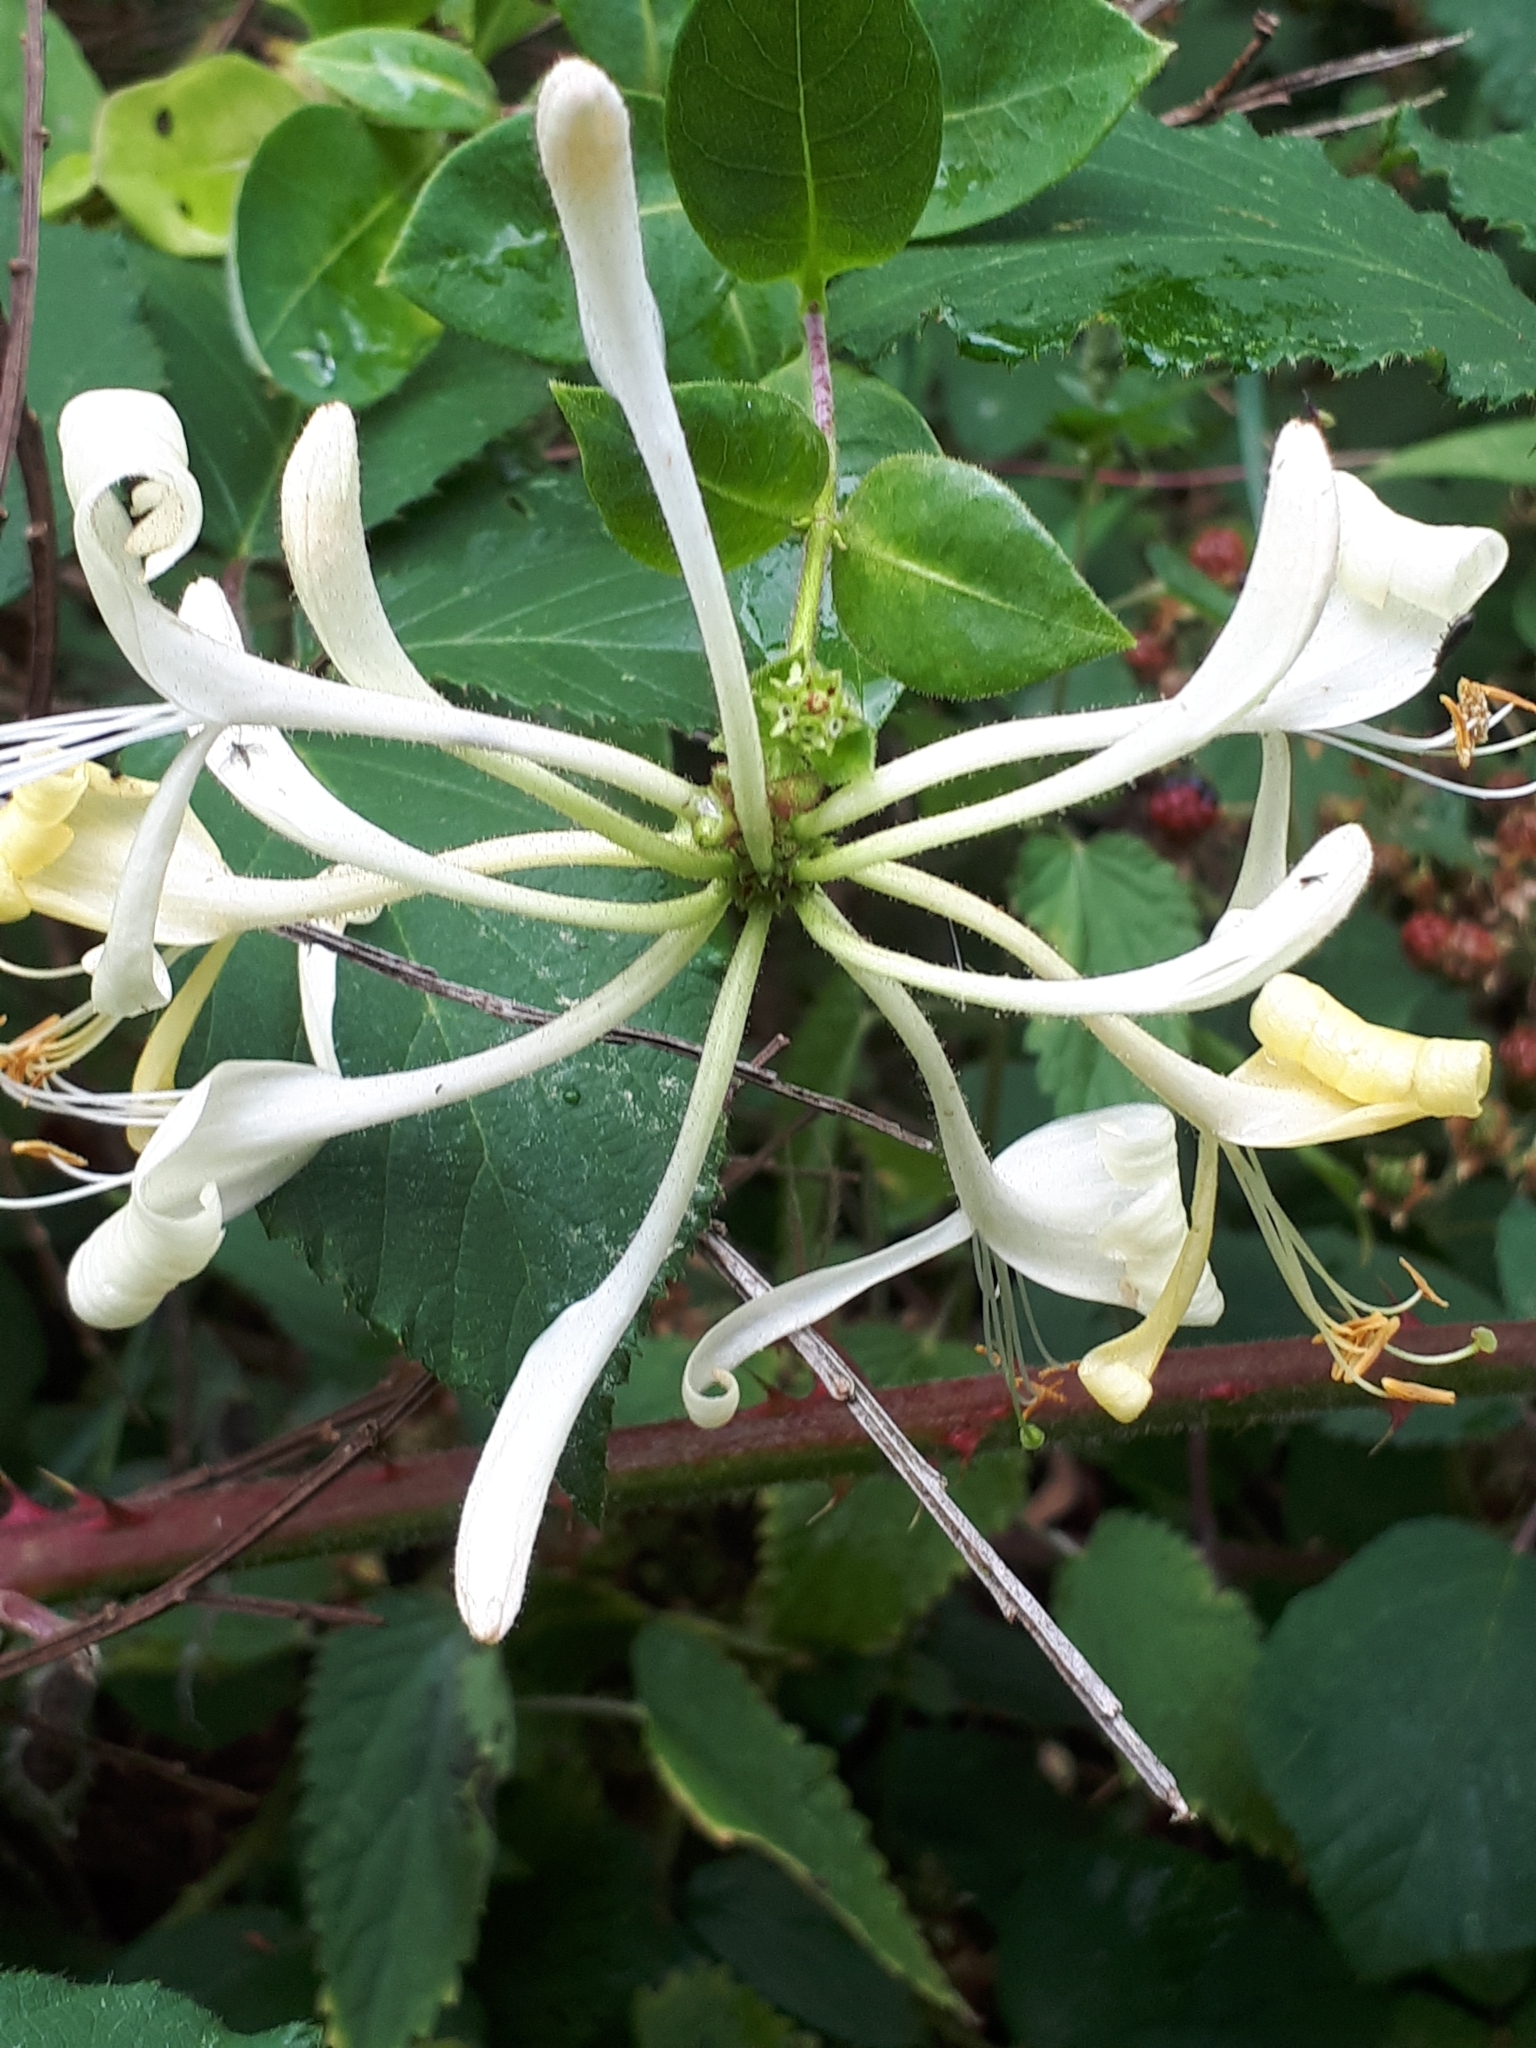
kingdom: Plantae
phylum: Tracheophyta
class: Magnoliopsida
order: Dipsacales
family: Caprifoliaceae
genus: Lonicera
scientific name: Lonicera periclymenum
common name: European honeysuckle
